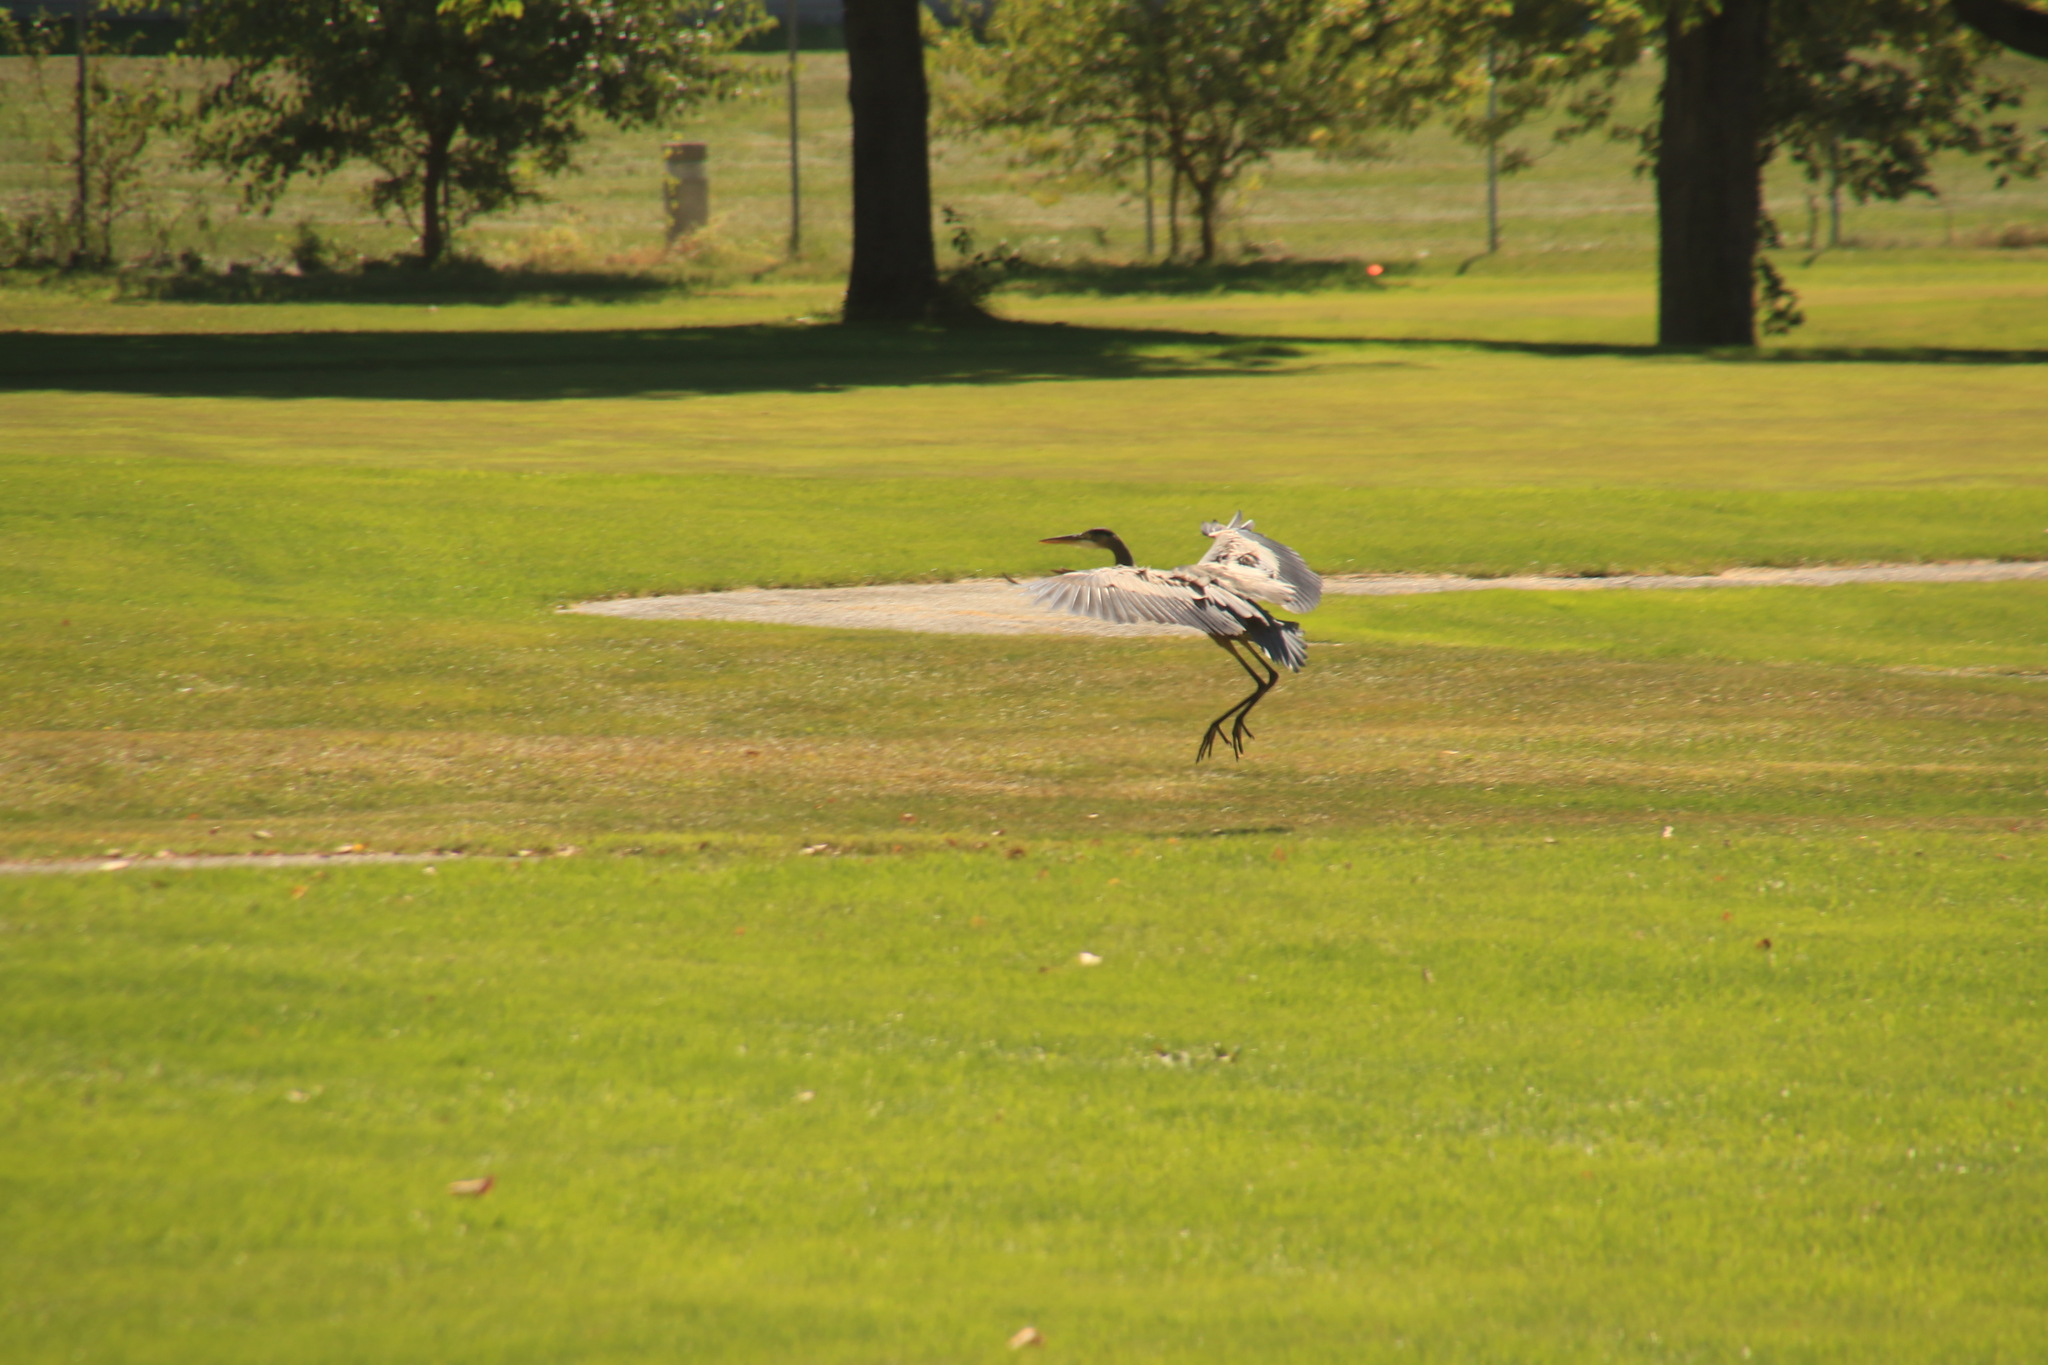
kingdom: Animalia
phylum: Chordata
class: Aves
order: Pelecaniformes
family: Ardeidae
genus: Ardea
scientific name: Ardea herodias
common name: Great blue heron
